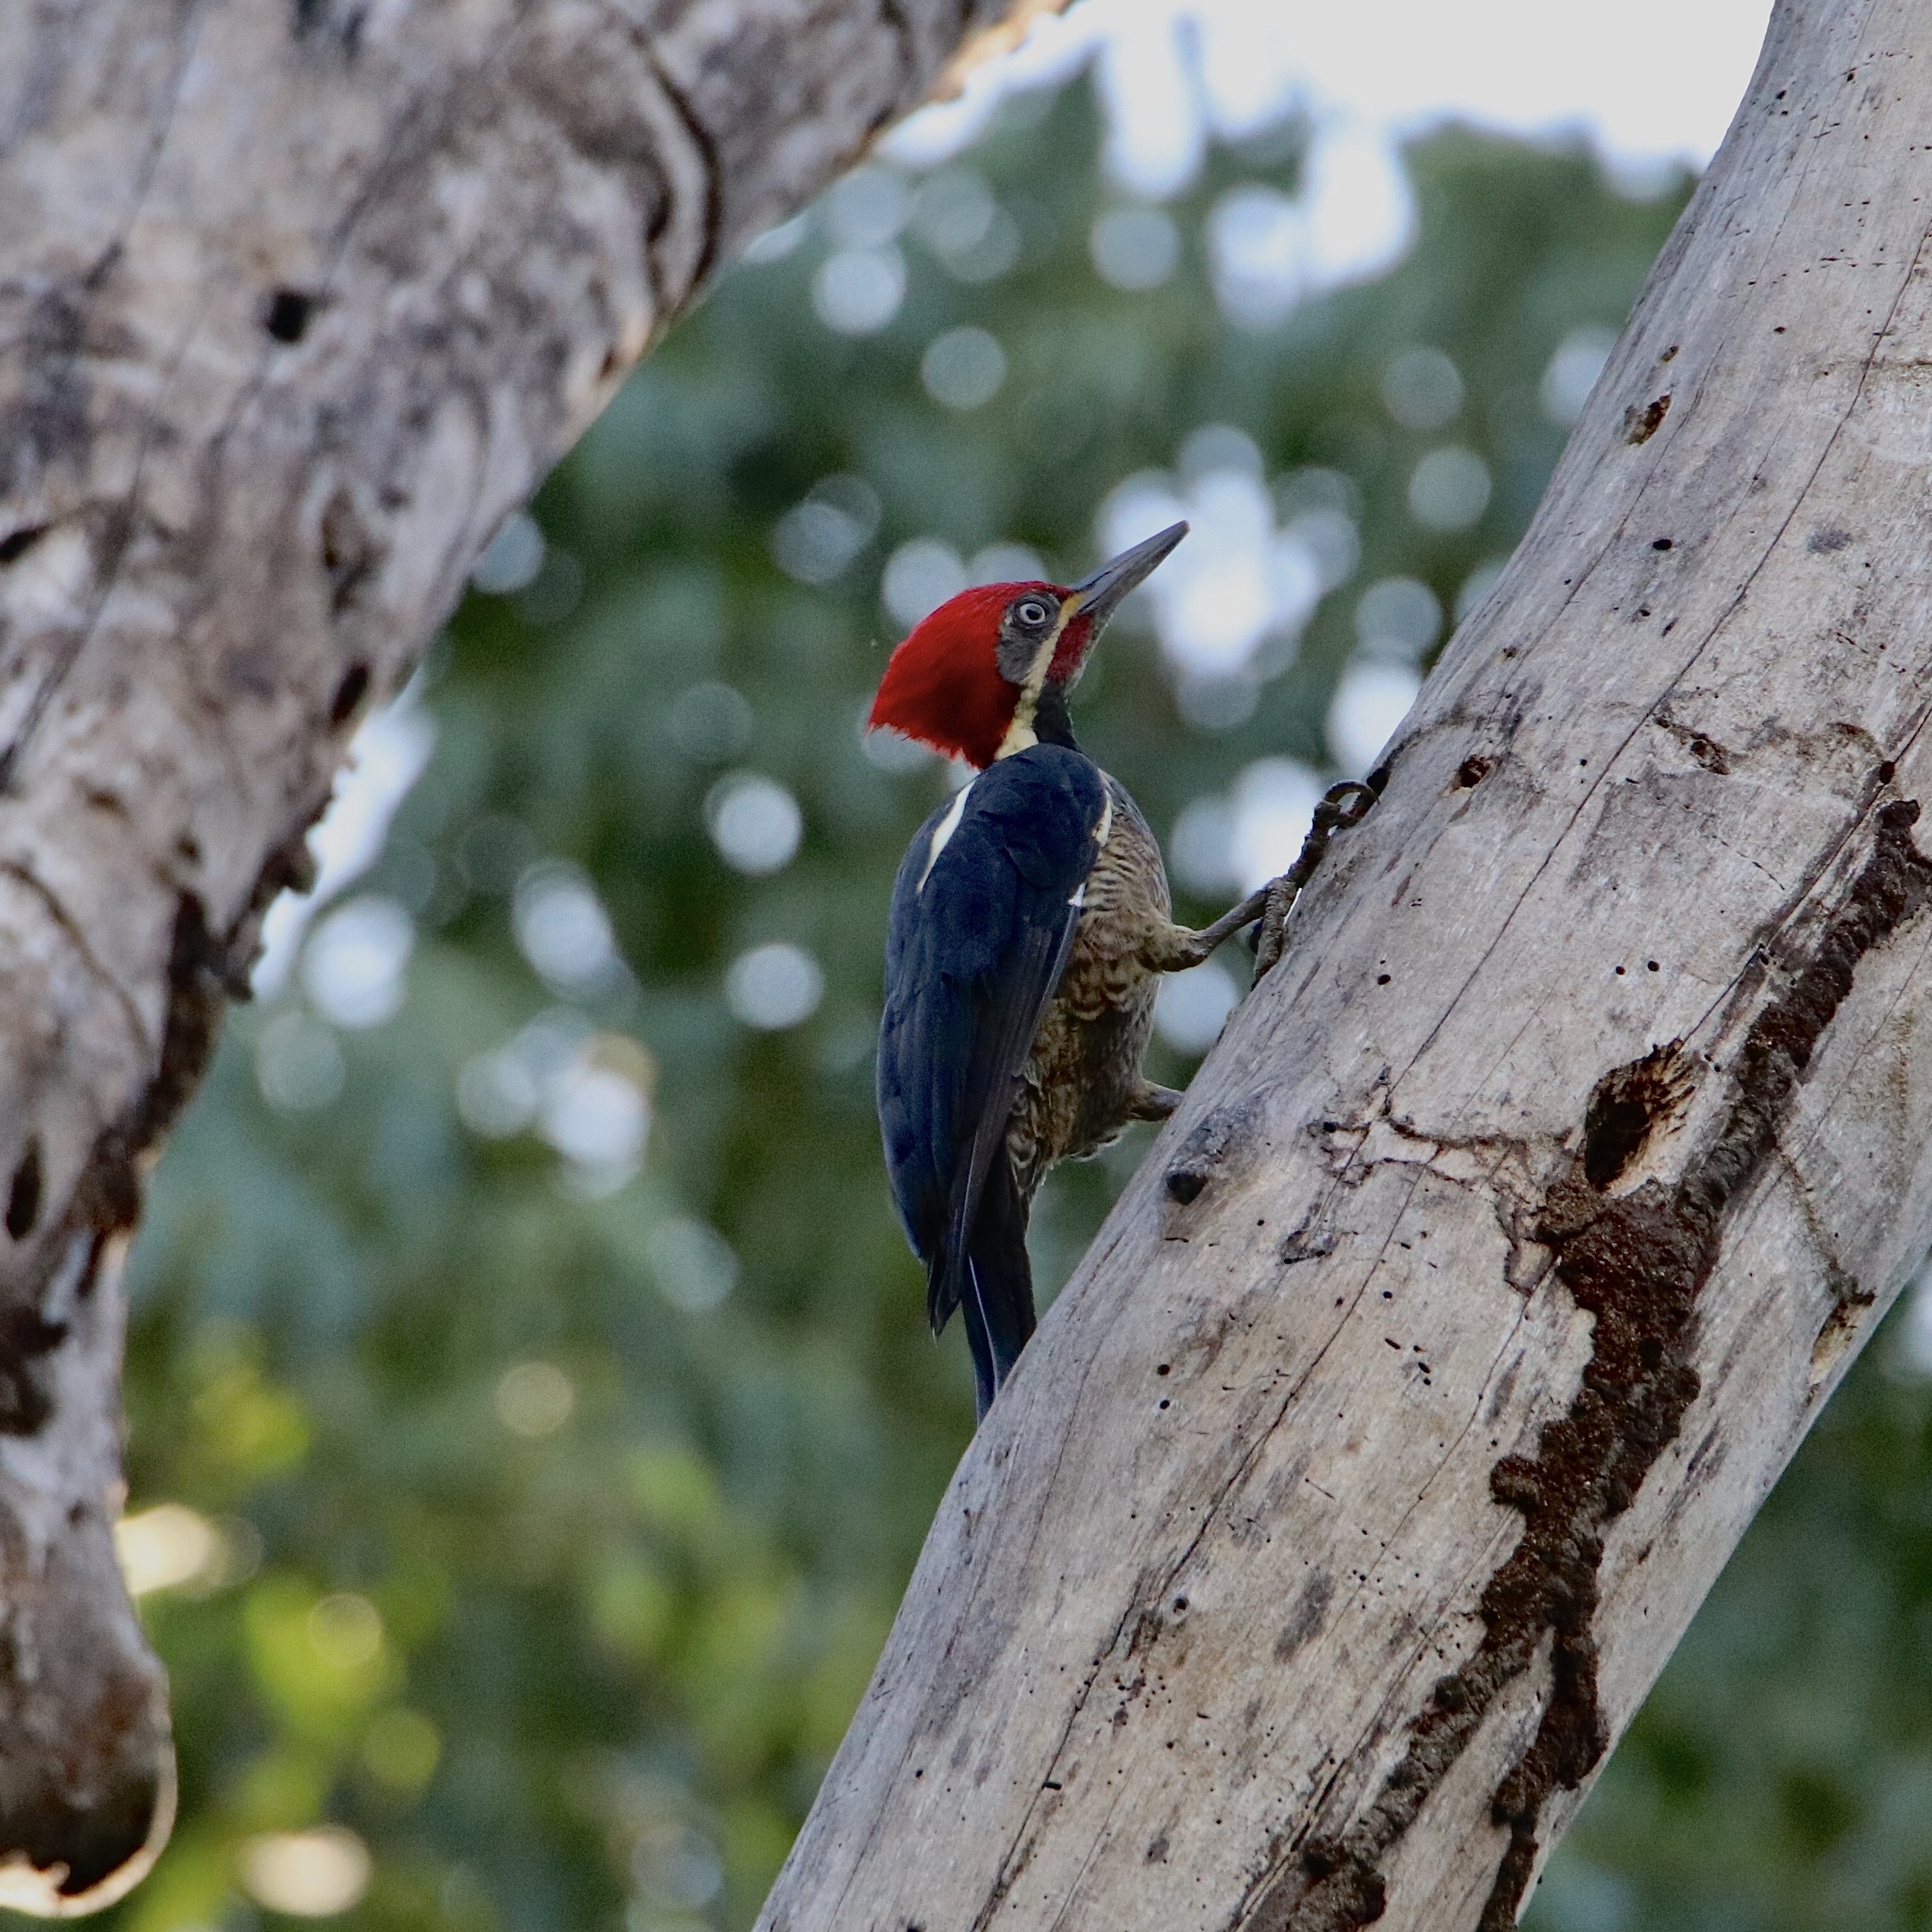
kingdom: Animalia
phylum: Chordata
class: Aves
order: Piciformes
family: Picidae
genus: Dryocopus
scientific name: Dryocopus lineatus
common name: Lineated woodpecker
